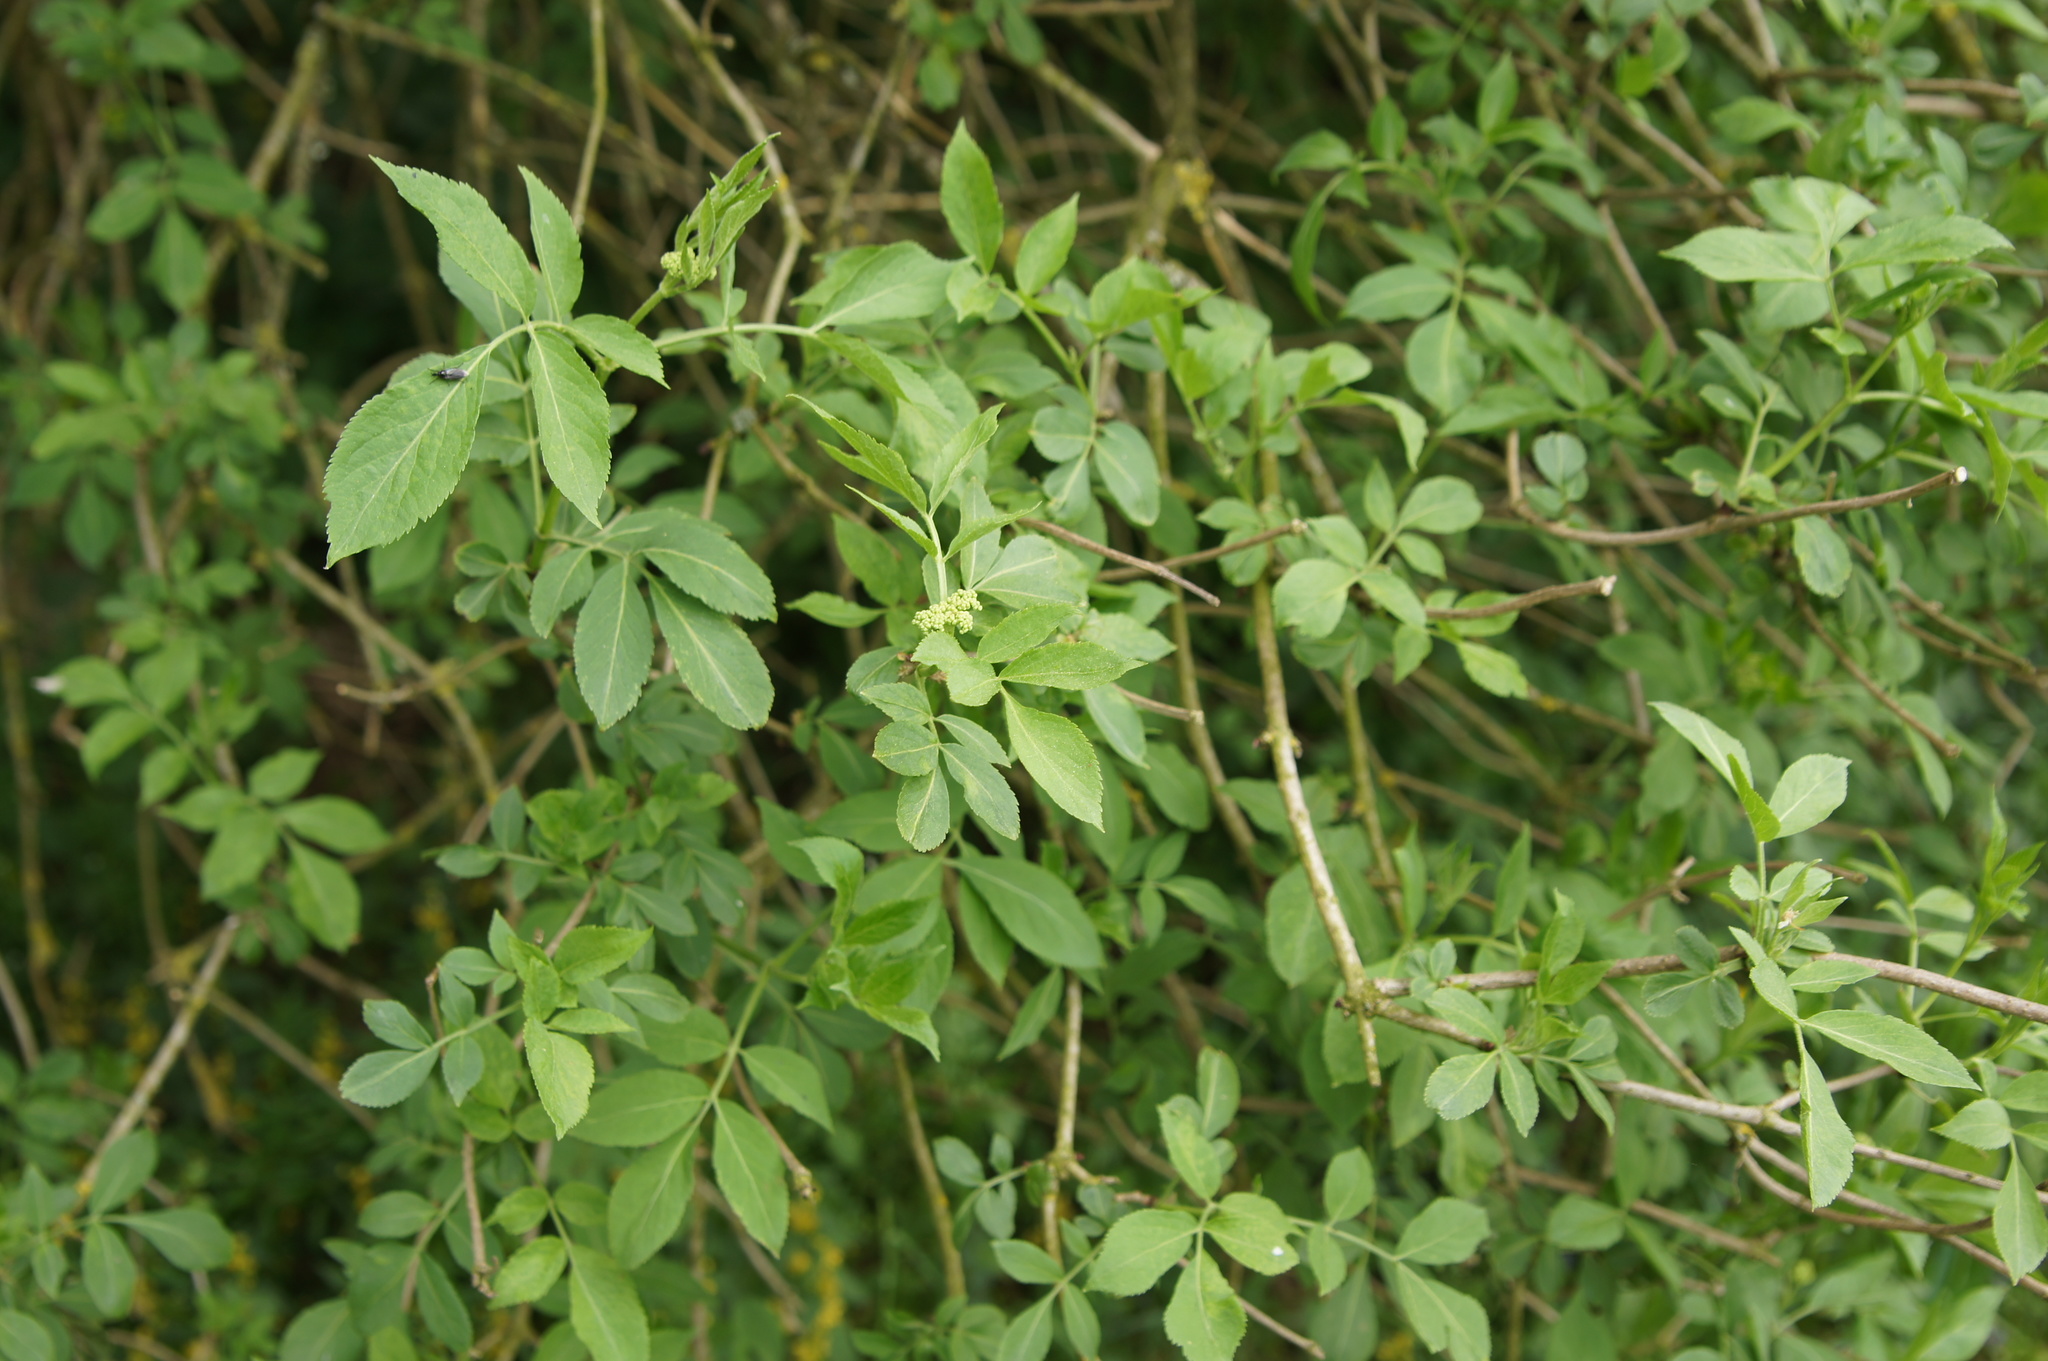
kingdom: Plantae
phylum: Tracheophyta
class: Magnoliopsida
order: Dipsacales
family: Viburnaceae
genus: Sambucus
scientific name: Sambucus nigra
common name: Elder
